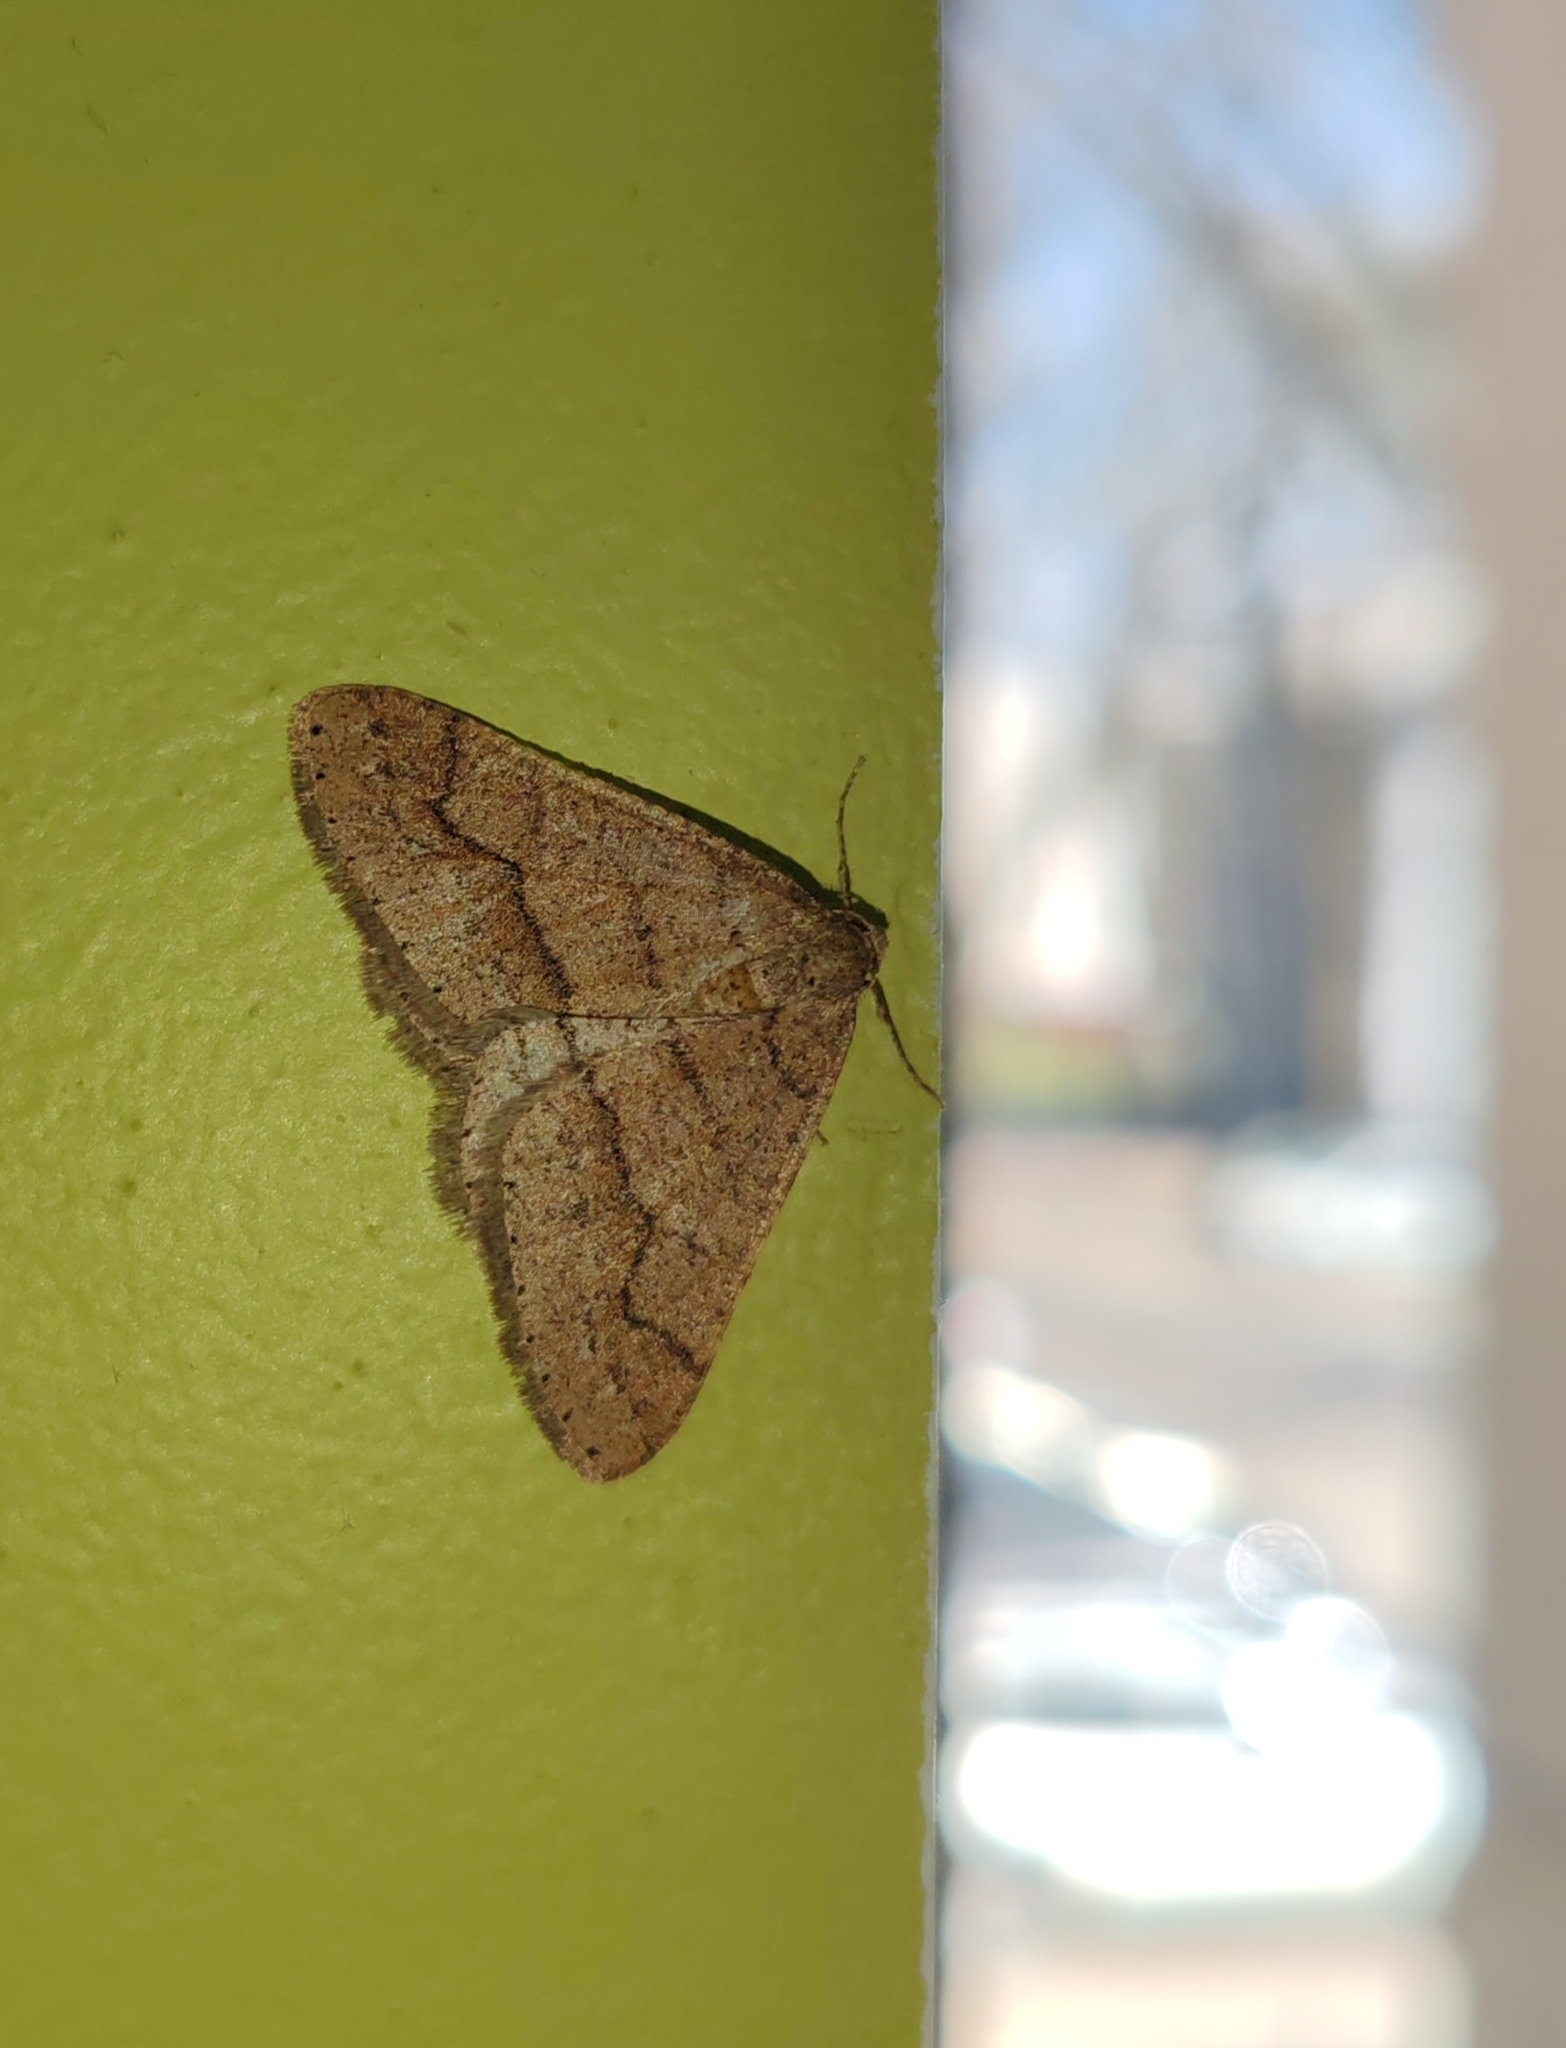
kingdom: Animalia
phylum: Arthropoda
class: Insecta
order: Lepidoptera
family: Geometridae
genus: Agriopis
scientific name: Agriopis marginaria
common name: Dotted border
